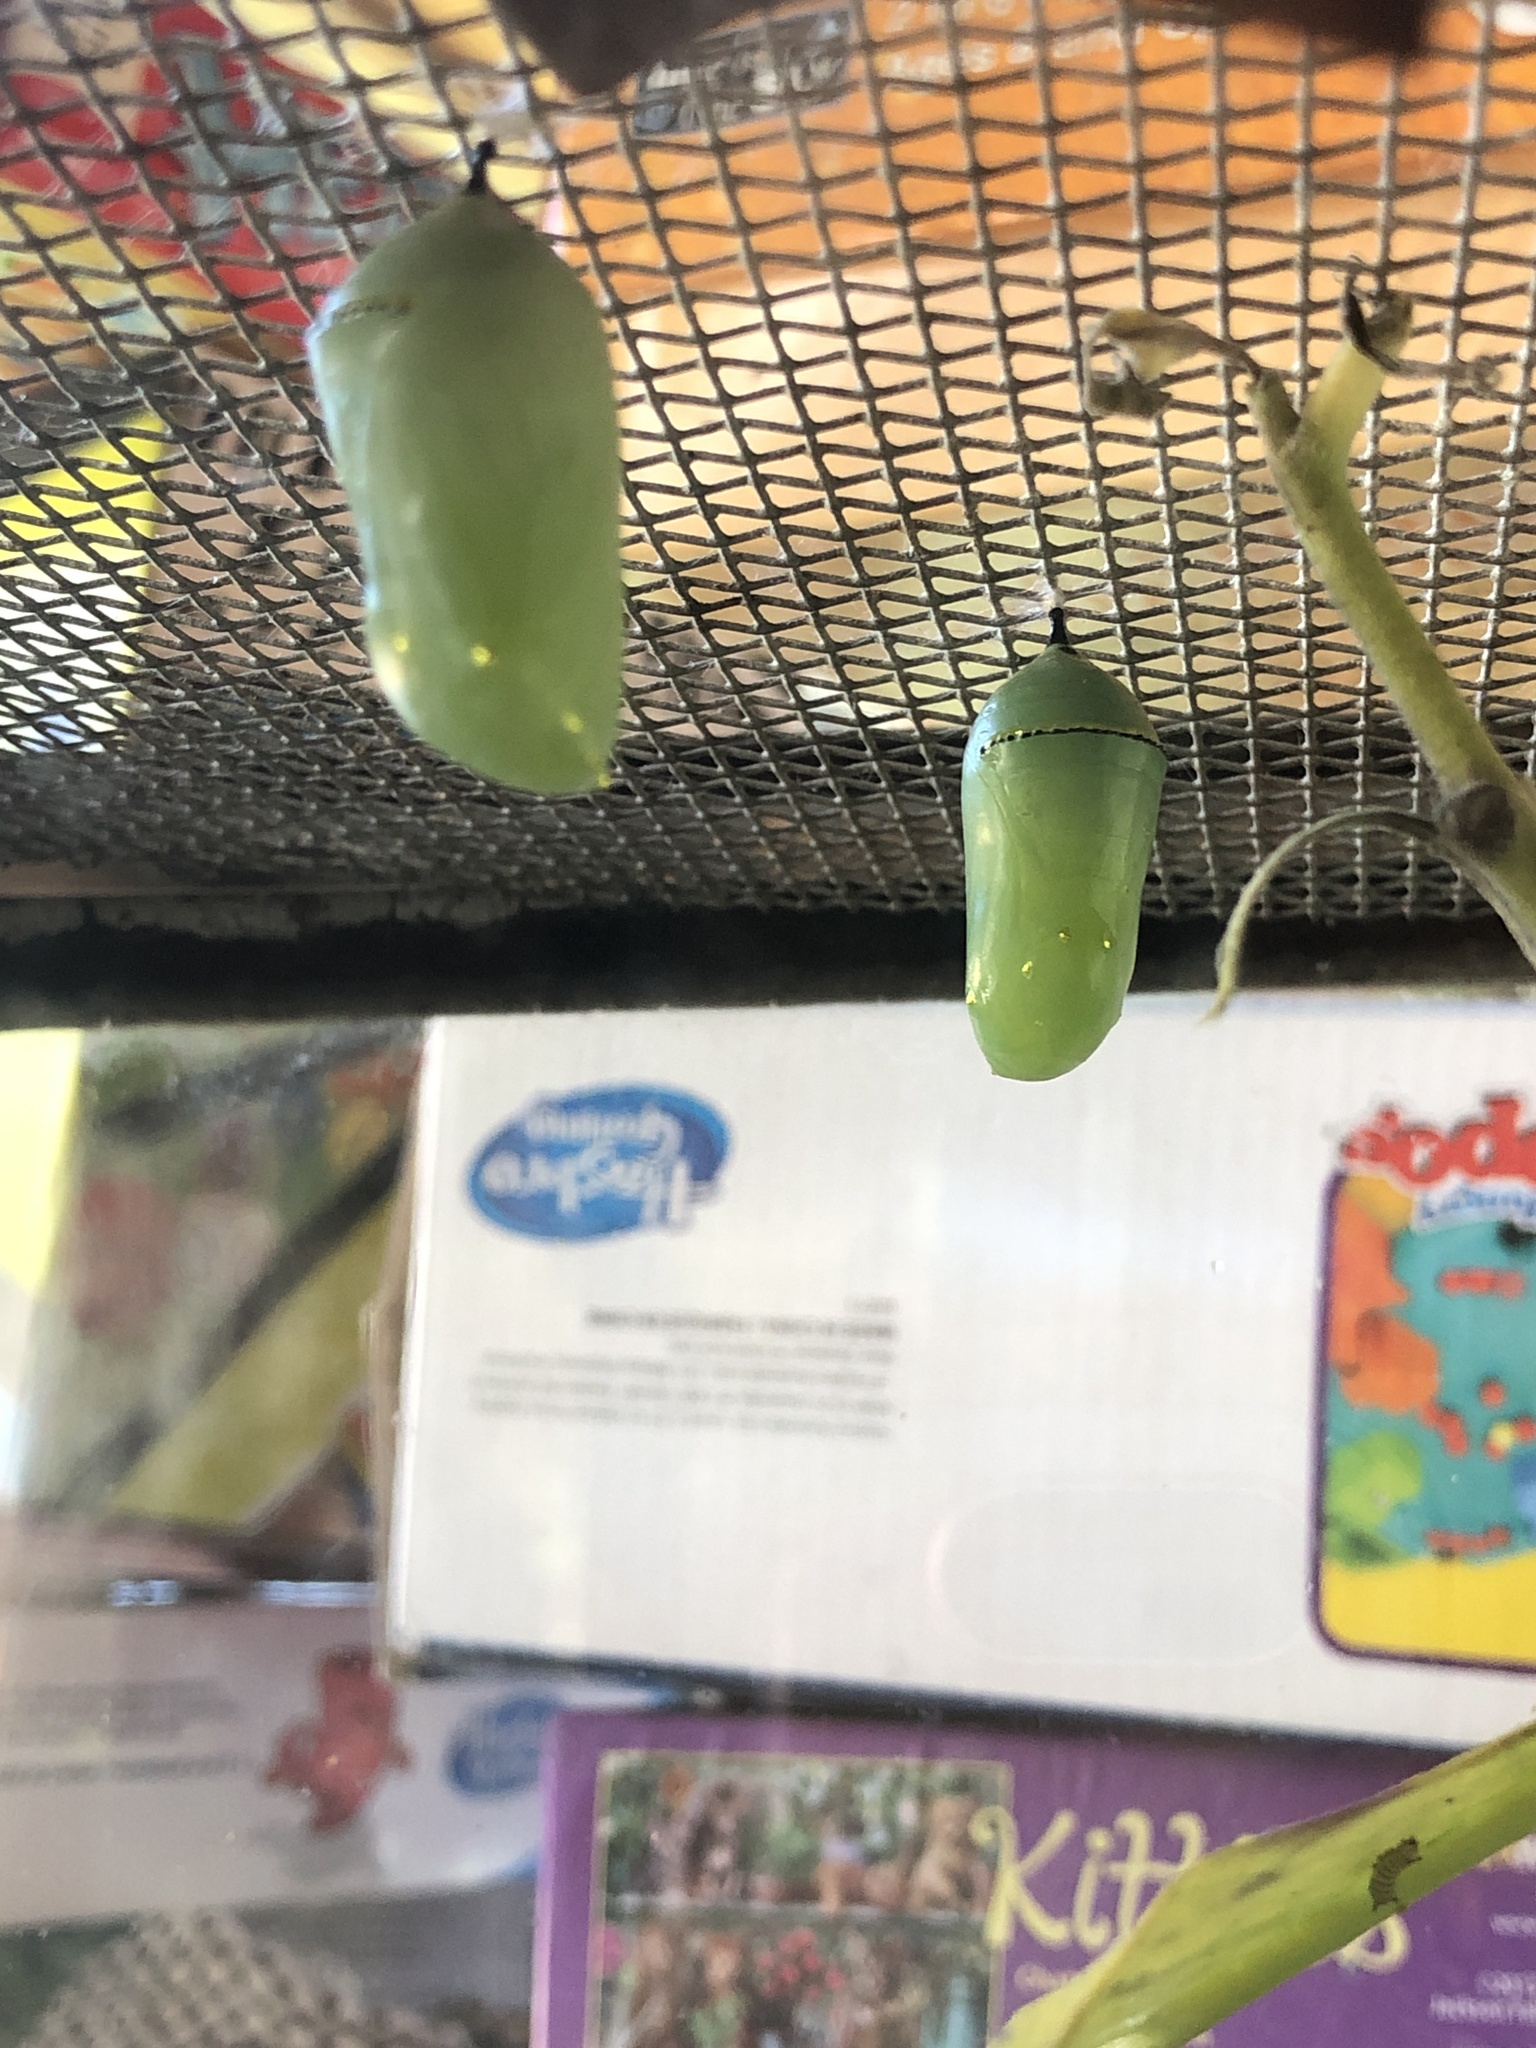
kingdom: Animalia
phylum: Arthropoda
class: Insecta
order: Lepidoptera
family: Nymphalidae
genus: Danaus
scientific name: Danaus plexippus
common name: Monarch
